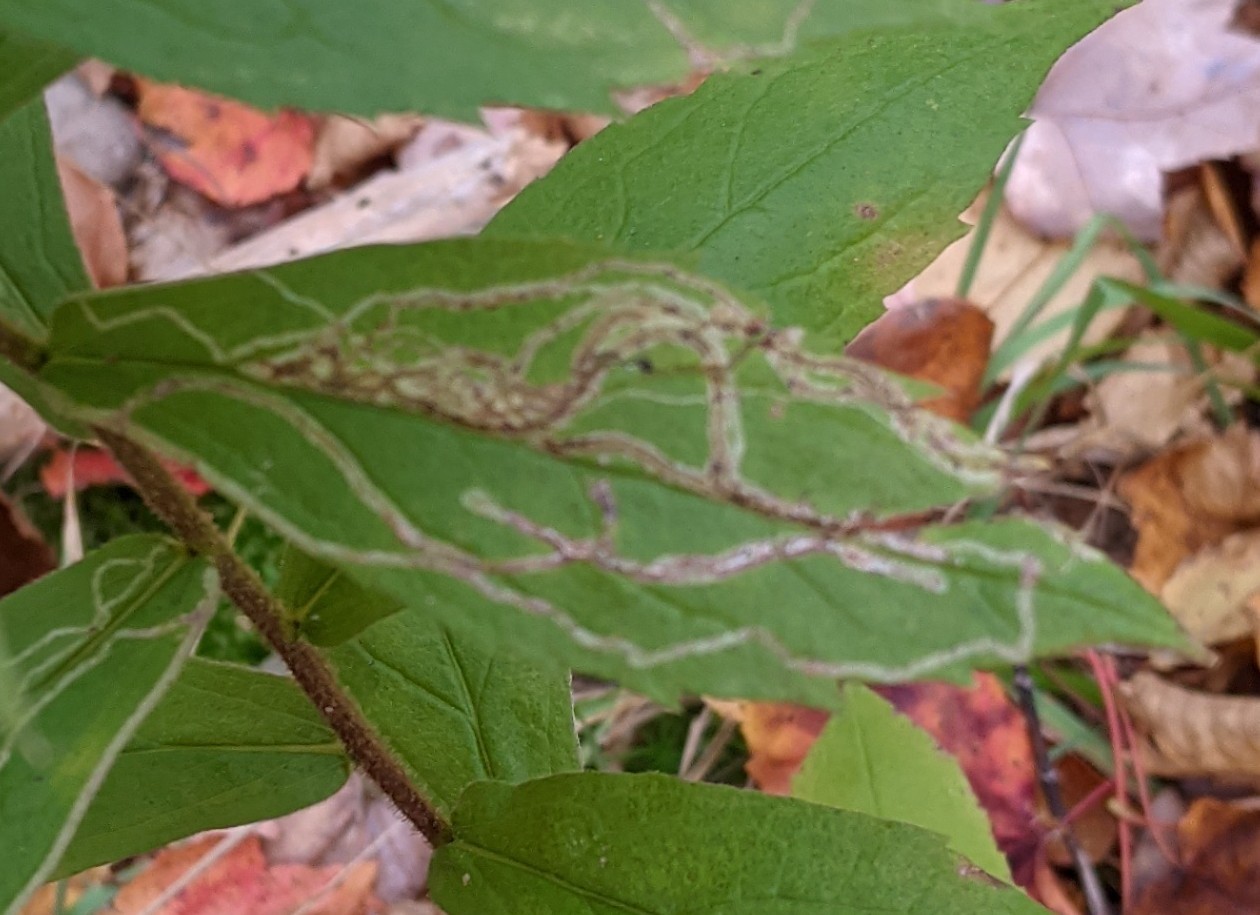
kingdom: Animalia
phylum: Arthropoda
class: Insecta
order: Diptera
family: Agromyzidae
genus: Ophiomyia
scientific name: Ophiomyia maura
